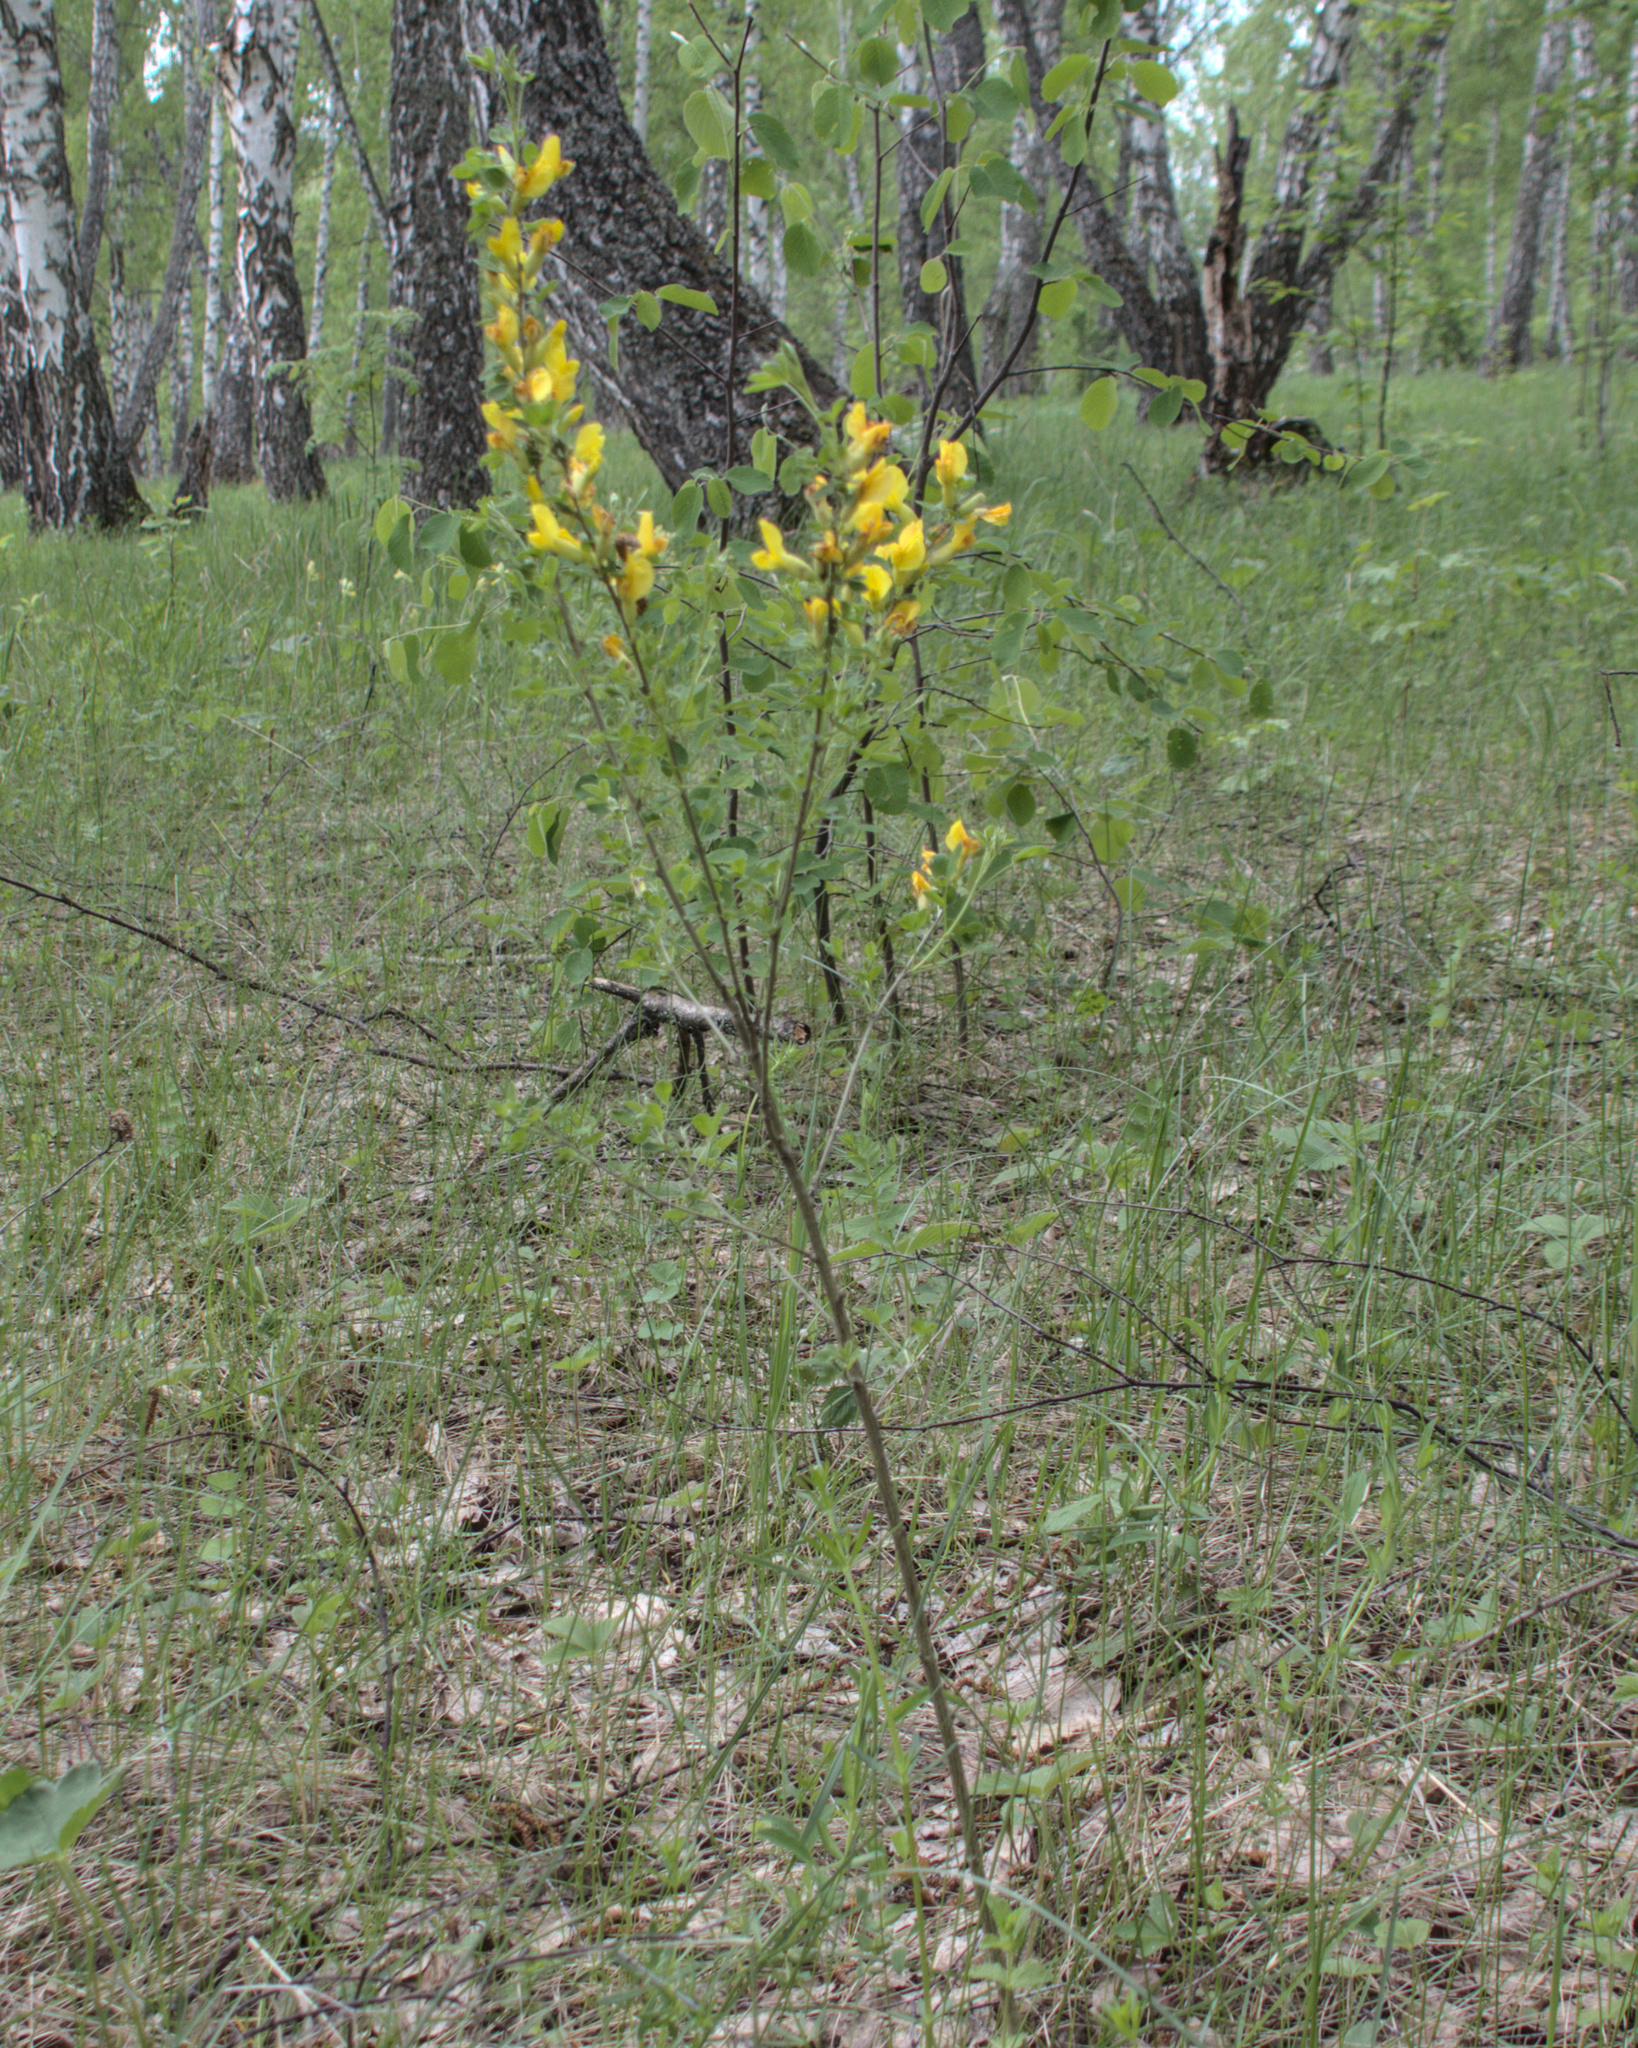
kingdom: Plantae
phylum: Tracheophyta
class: Magnoliopsida
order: Fabales
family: Fabaceae
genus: Chamaecytisus
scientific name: Chamaecytisus ruthenicus
